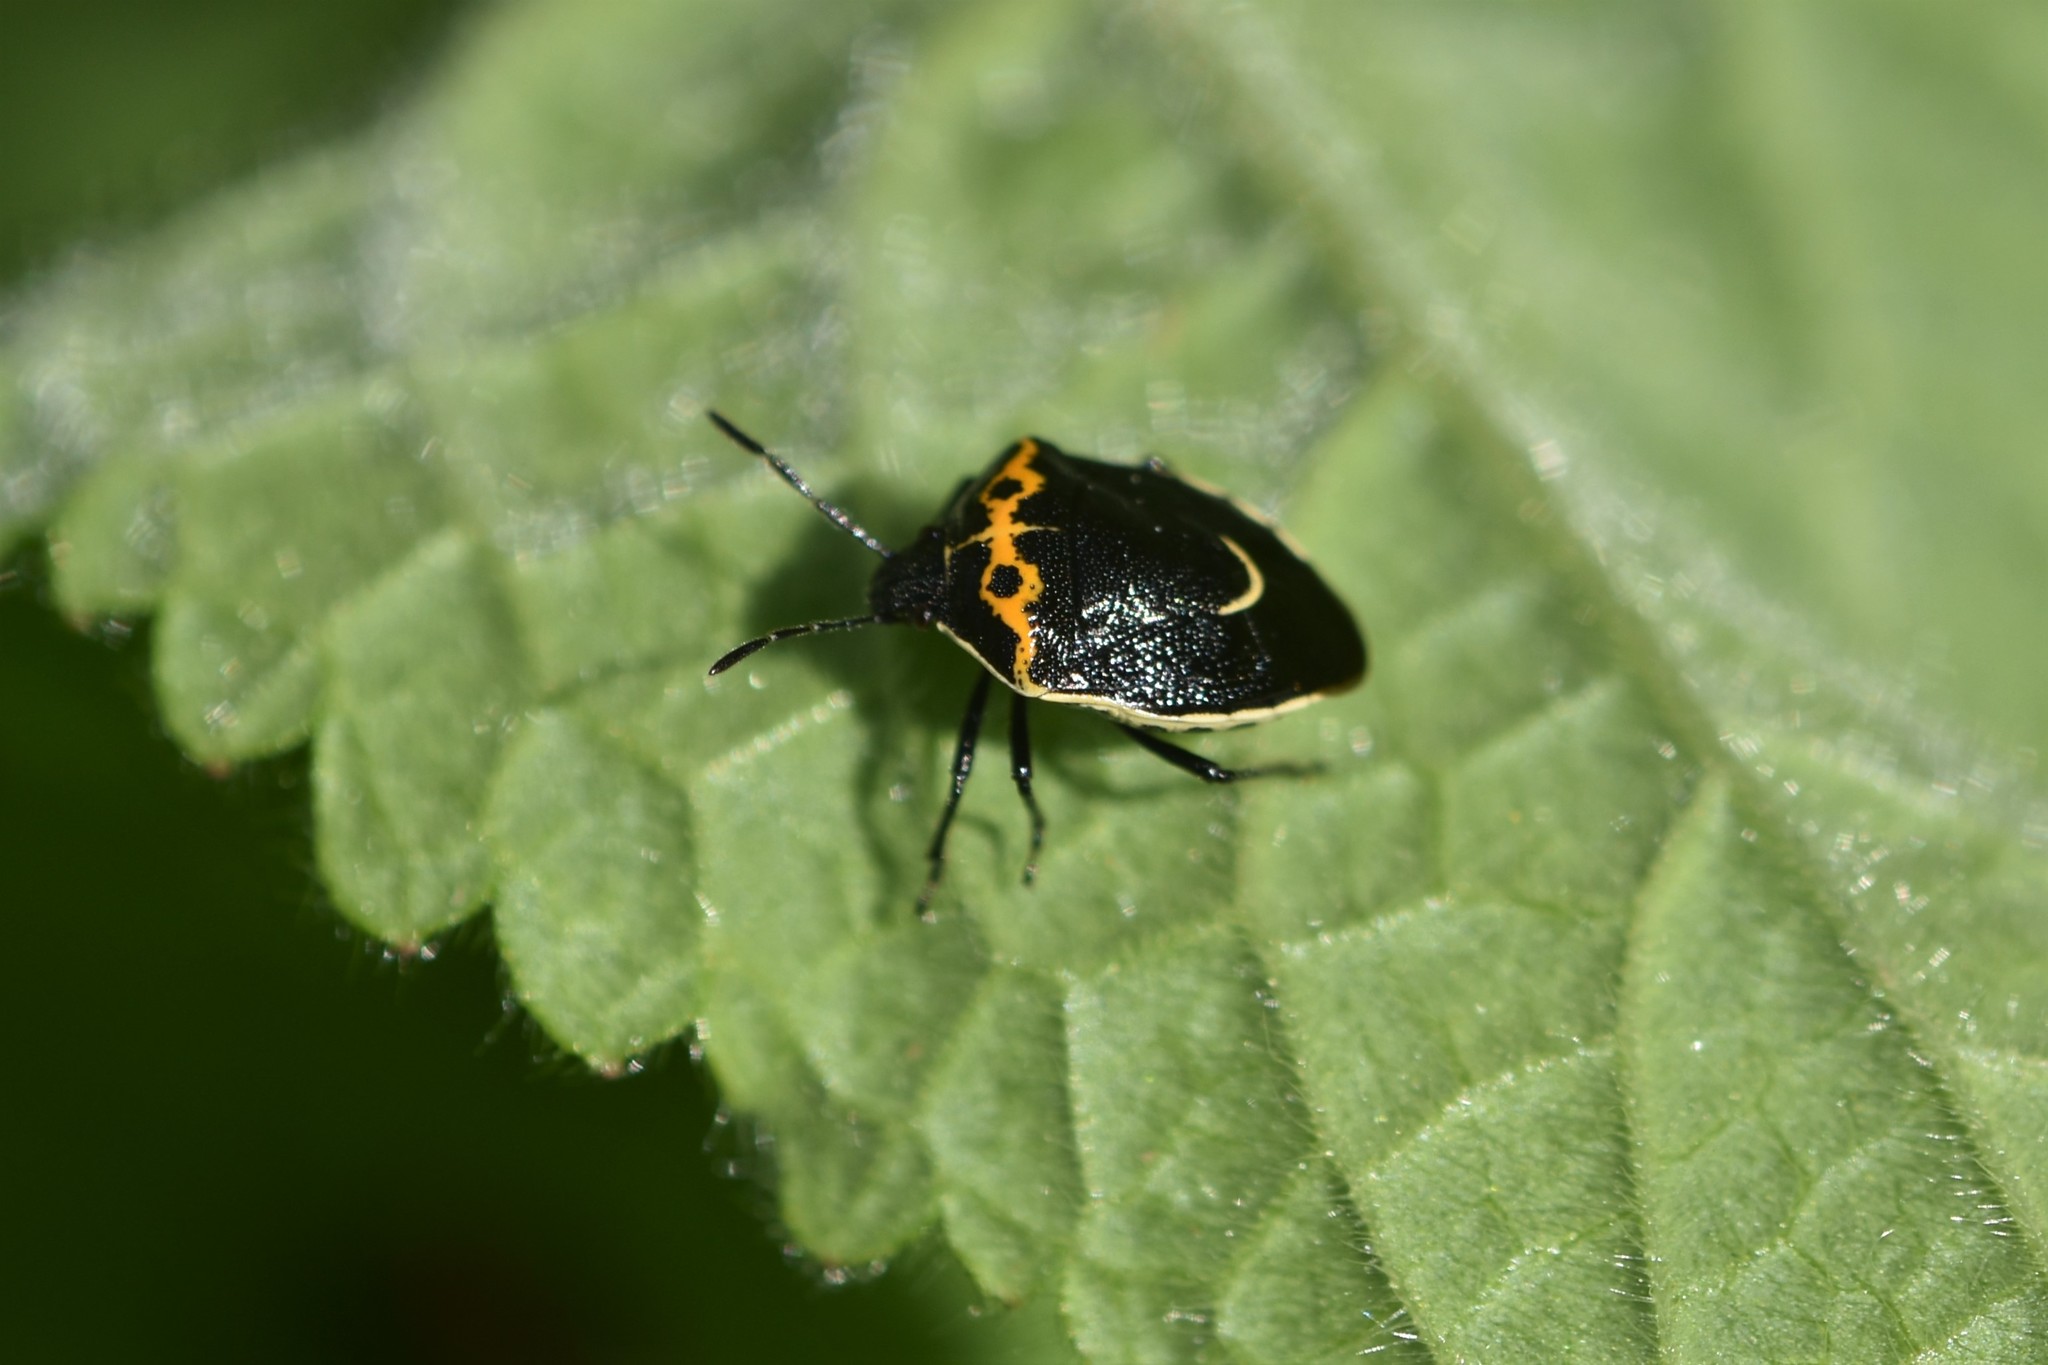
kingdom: Animalia
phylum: Arthropoda
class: Insecta
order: Hemiptera
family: Pentatomidae
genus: Cosmopepla
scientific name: Cosmopepla conspicillaris
